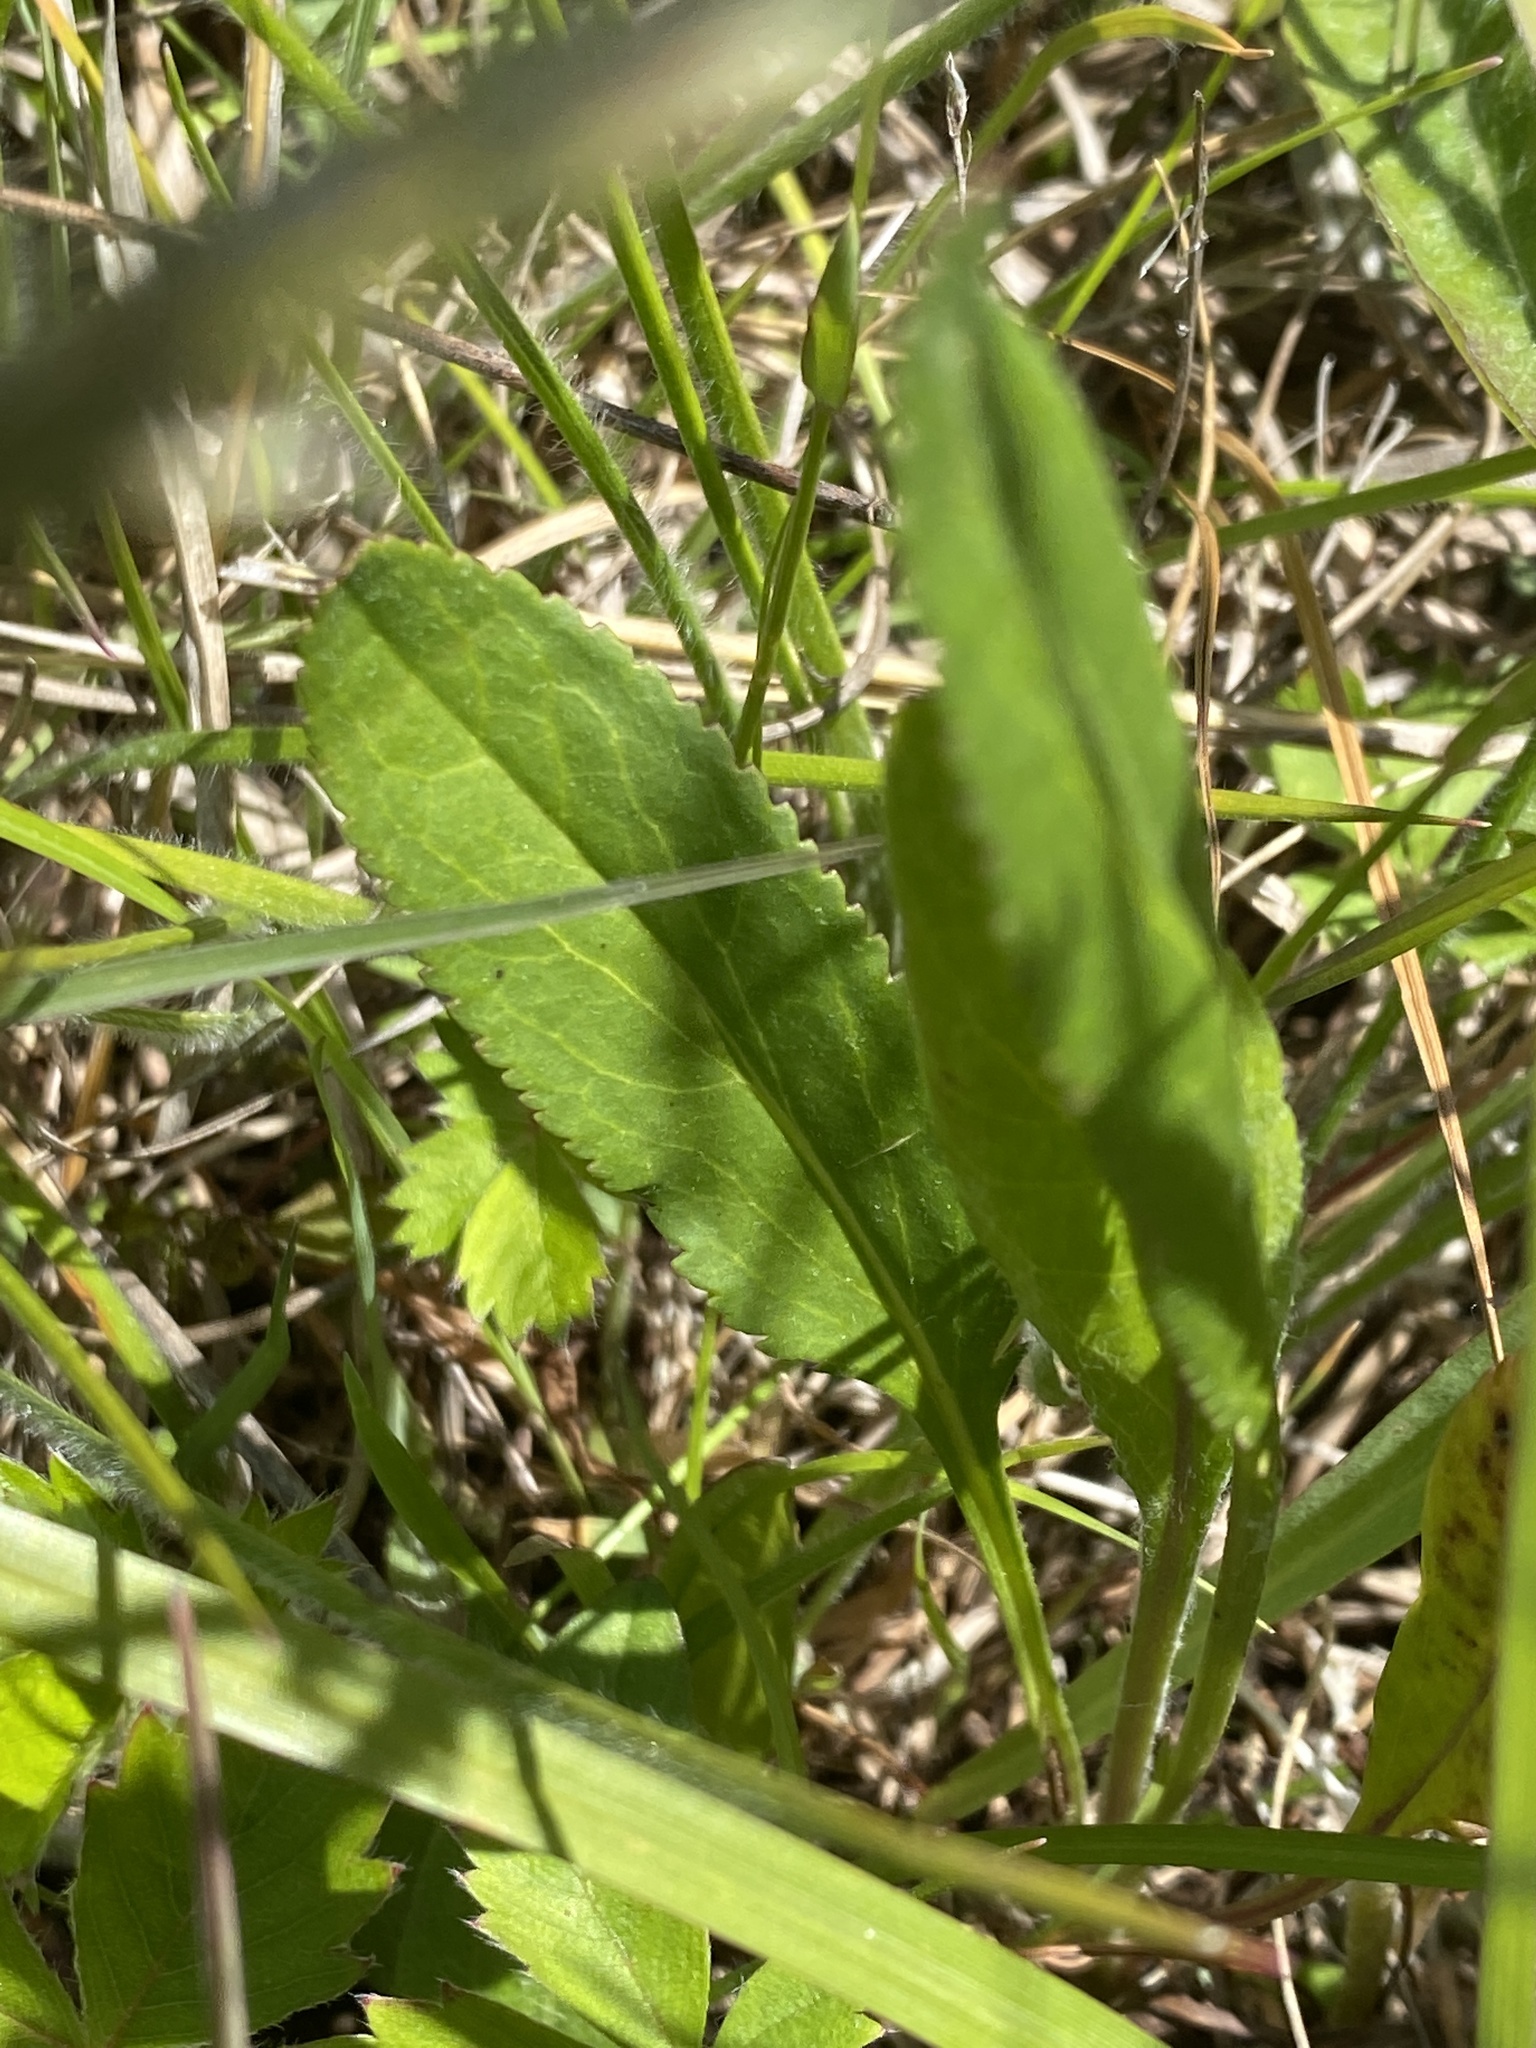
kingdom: Plantae
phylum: Tracheophyta
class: Magnoliopsida
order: Asterales
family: Asteraceae
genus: Packera
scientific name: Packera anonyma
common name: Small ragwort
